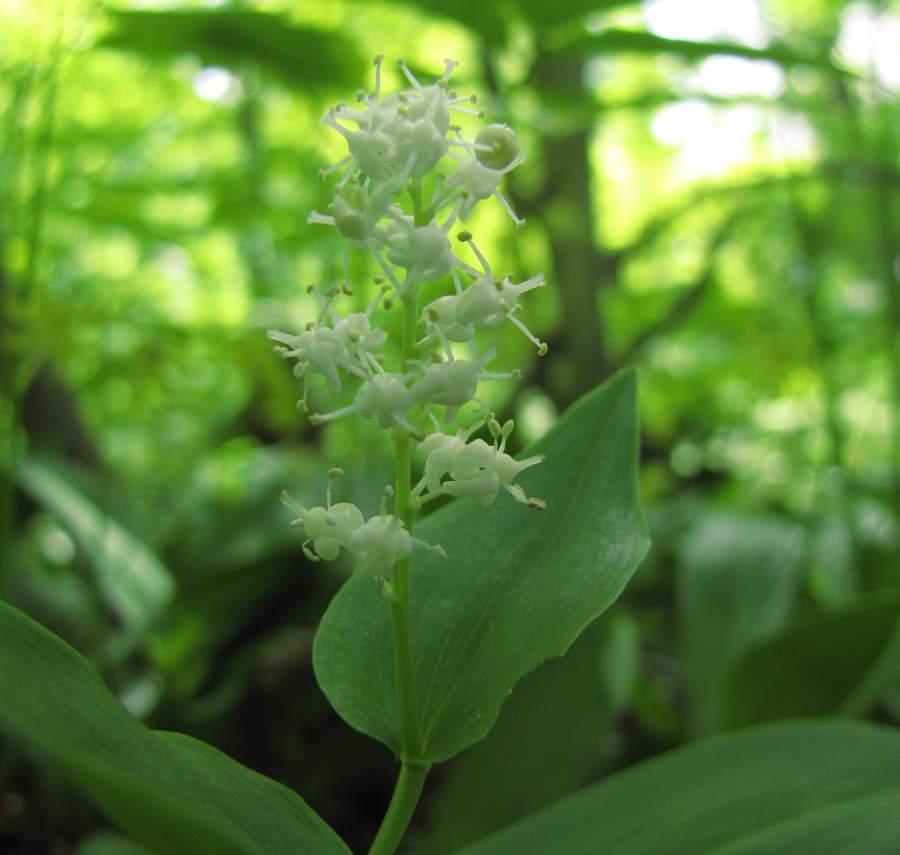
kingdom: Plantae
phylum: Tracheophyta
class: Liliopsida
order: Asparagales
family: Asparagaceae
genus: Maianthemum
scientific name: Maianthemum canadense
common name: False lily-of-the-valley
